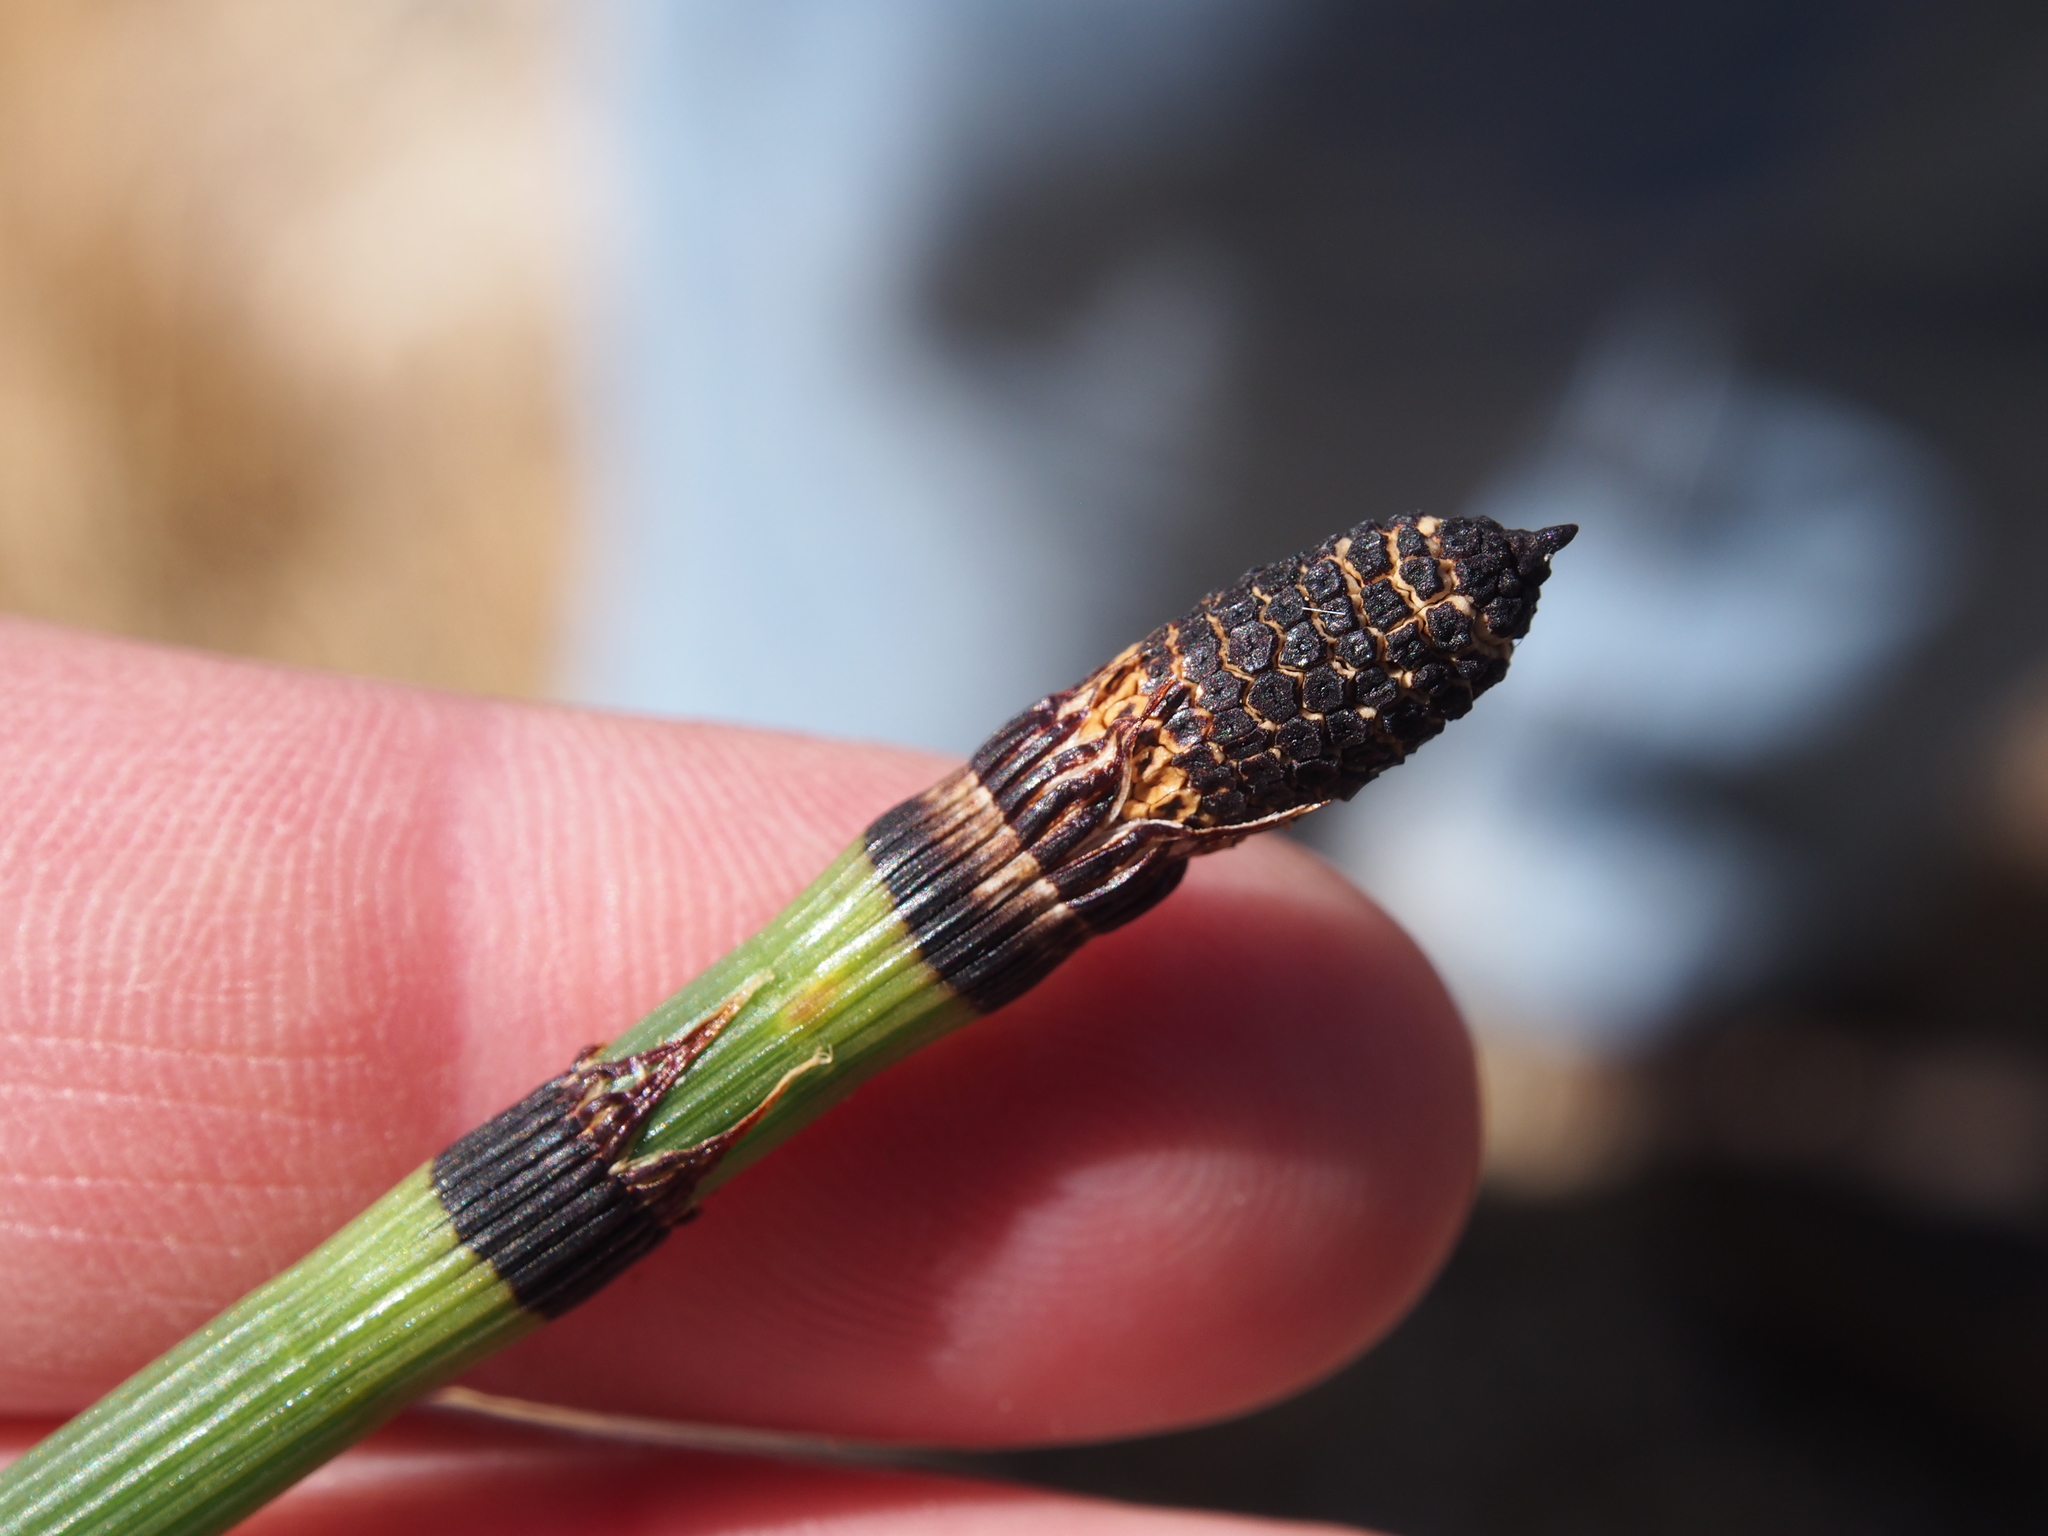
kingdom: Plantae
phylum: Tracheophyta
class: Polypodiopsida
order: Equisetales
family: Equisetaceae
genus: Equisetum
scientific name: Equisetum hyemale
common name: Rough horsetail
